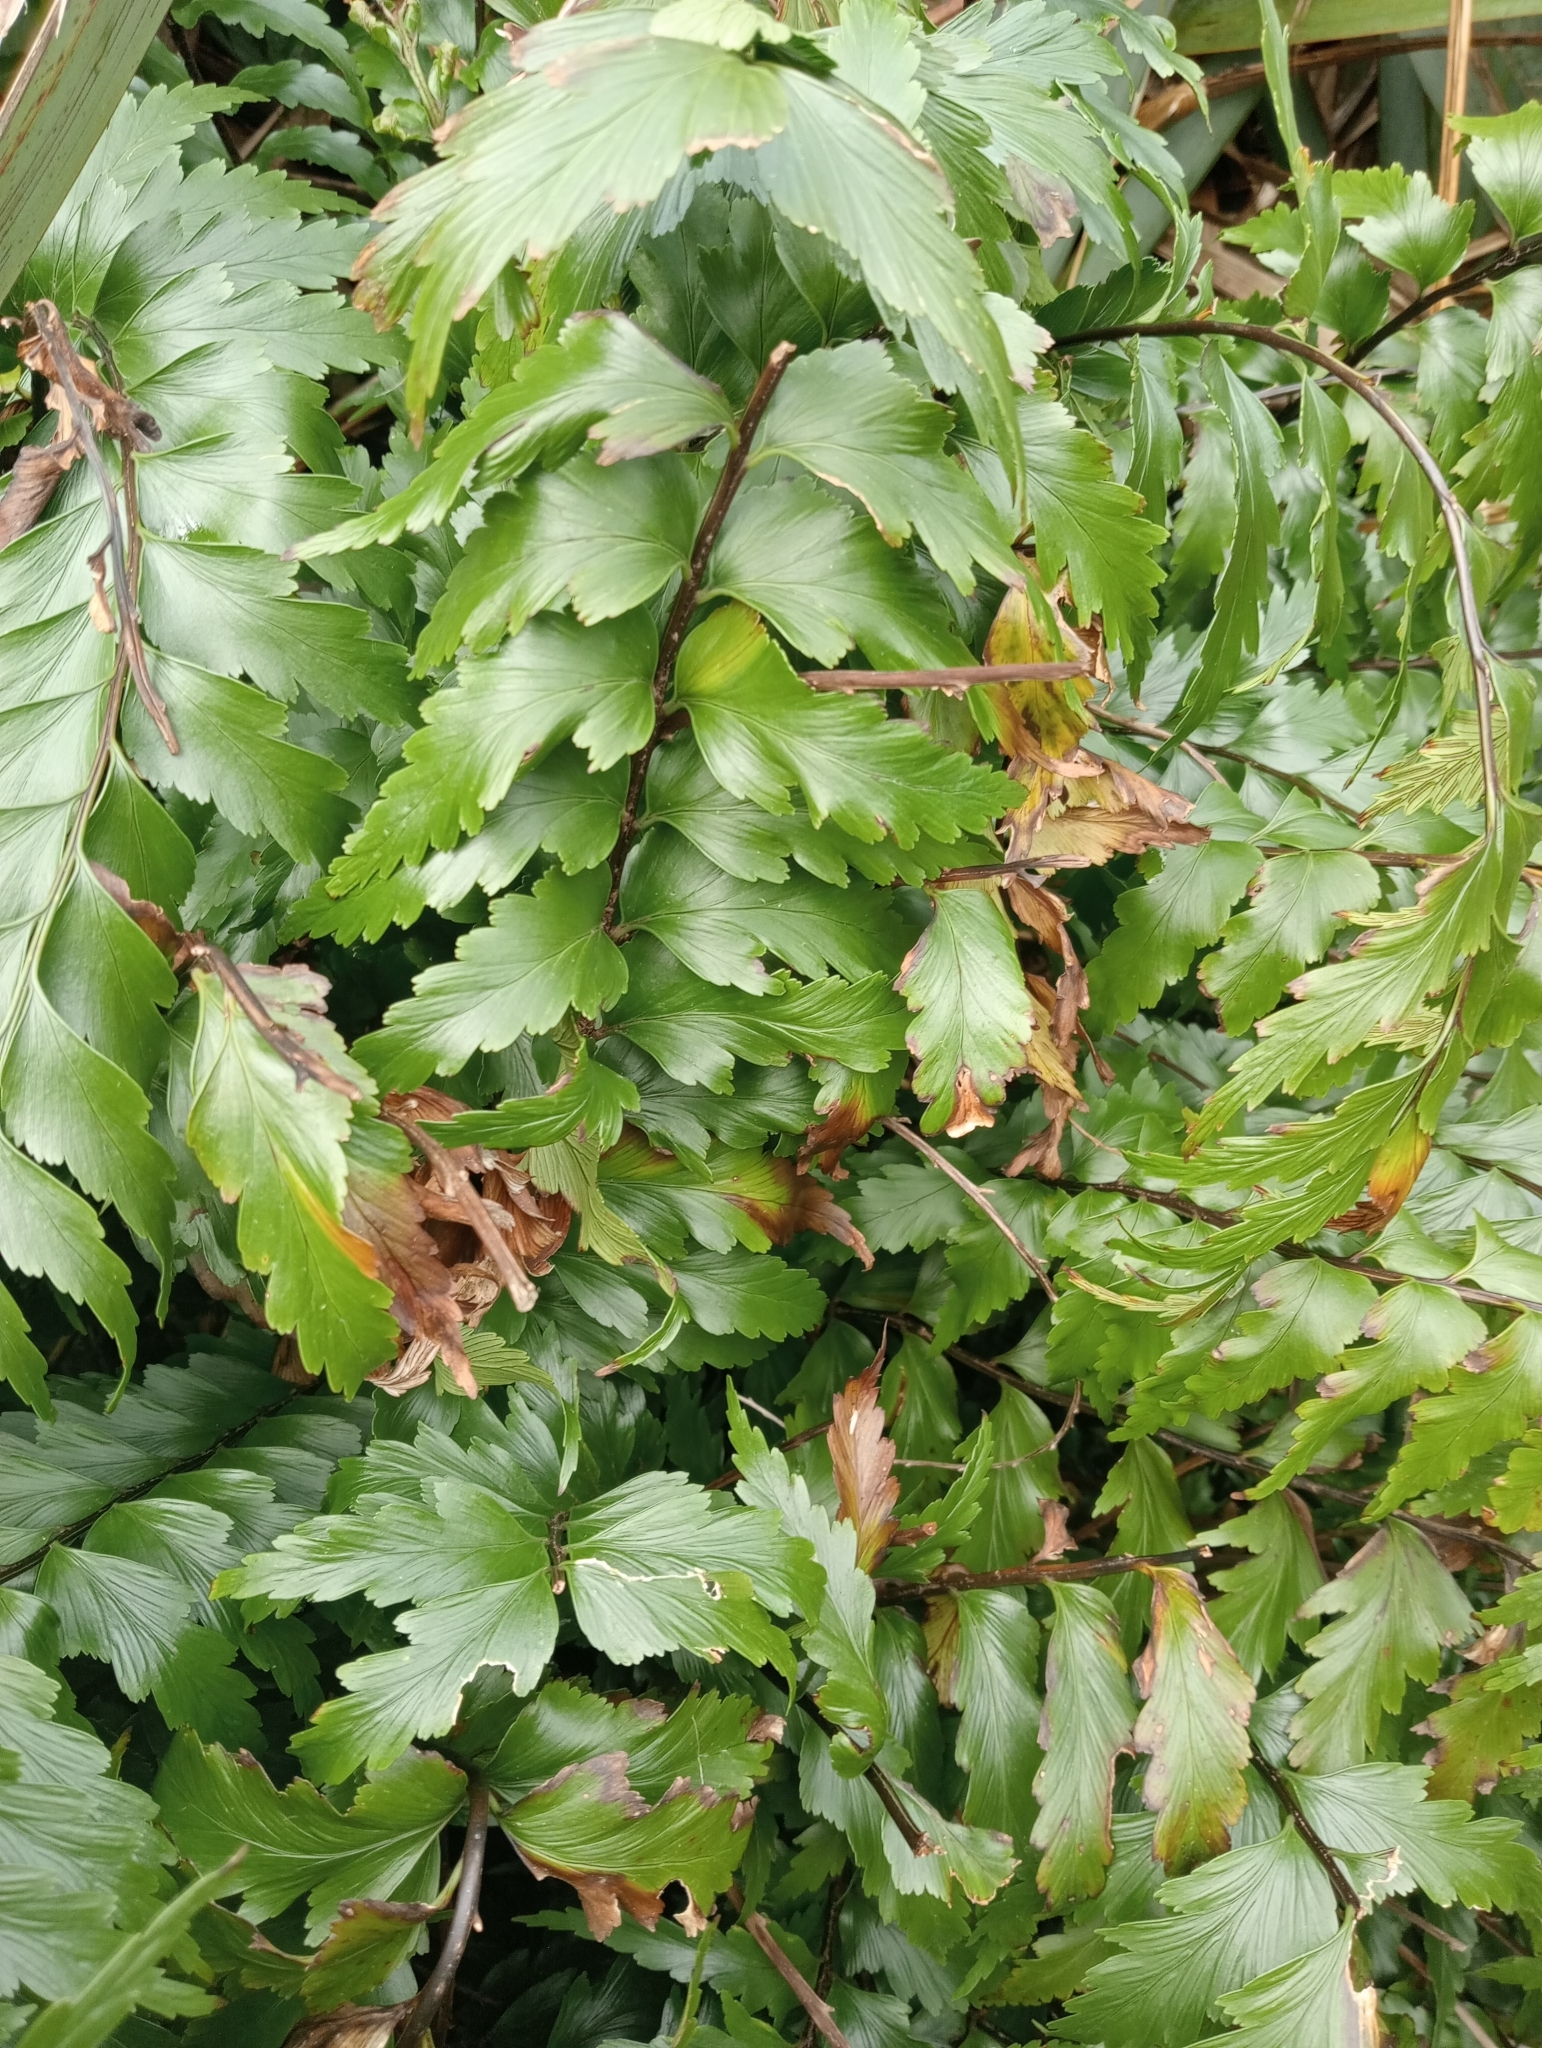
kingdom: Plantae
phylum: Tracheophyta
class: Polypodiopsida
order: Polypodiales
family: Aspleniaceae
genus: Asplenium
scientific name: Asplenium polyodon
